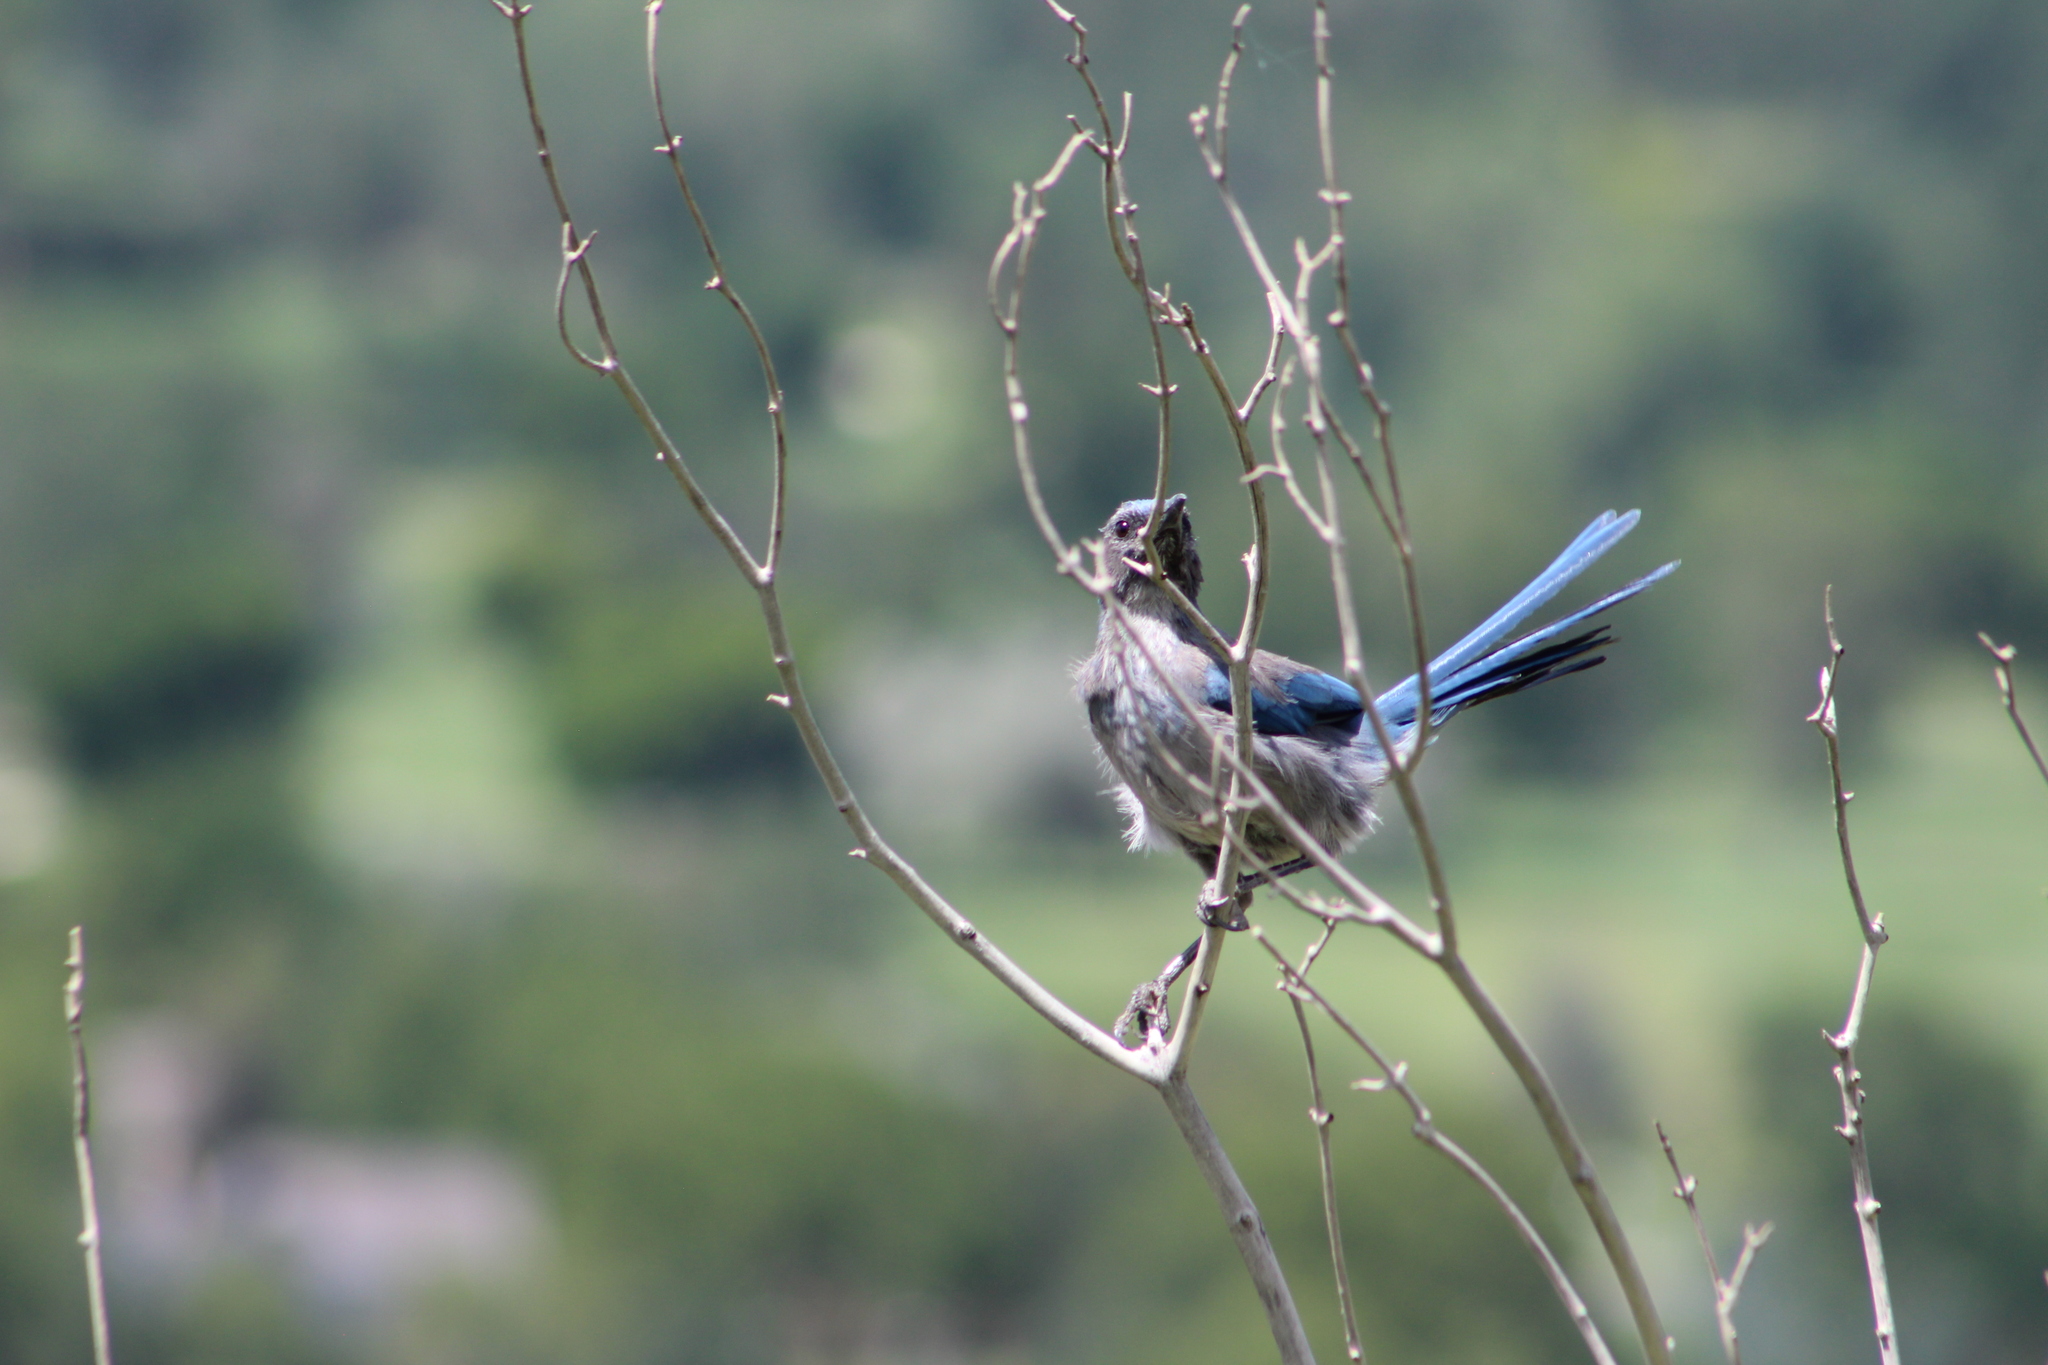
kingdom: Animalia
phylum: Chordata
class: Aves
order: Passeriformes
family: Corvidae
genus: Aphelocoma
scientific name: Aphelocoma woodhouseii
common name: Woodhouse's scrub-jay
